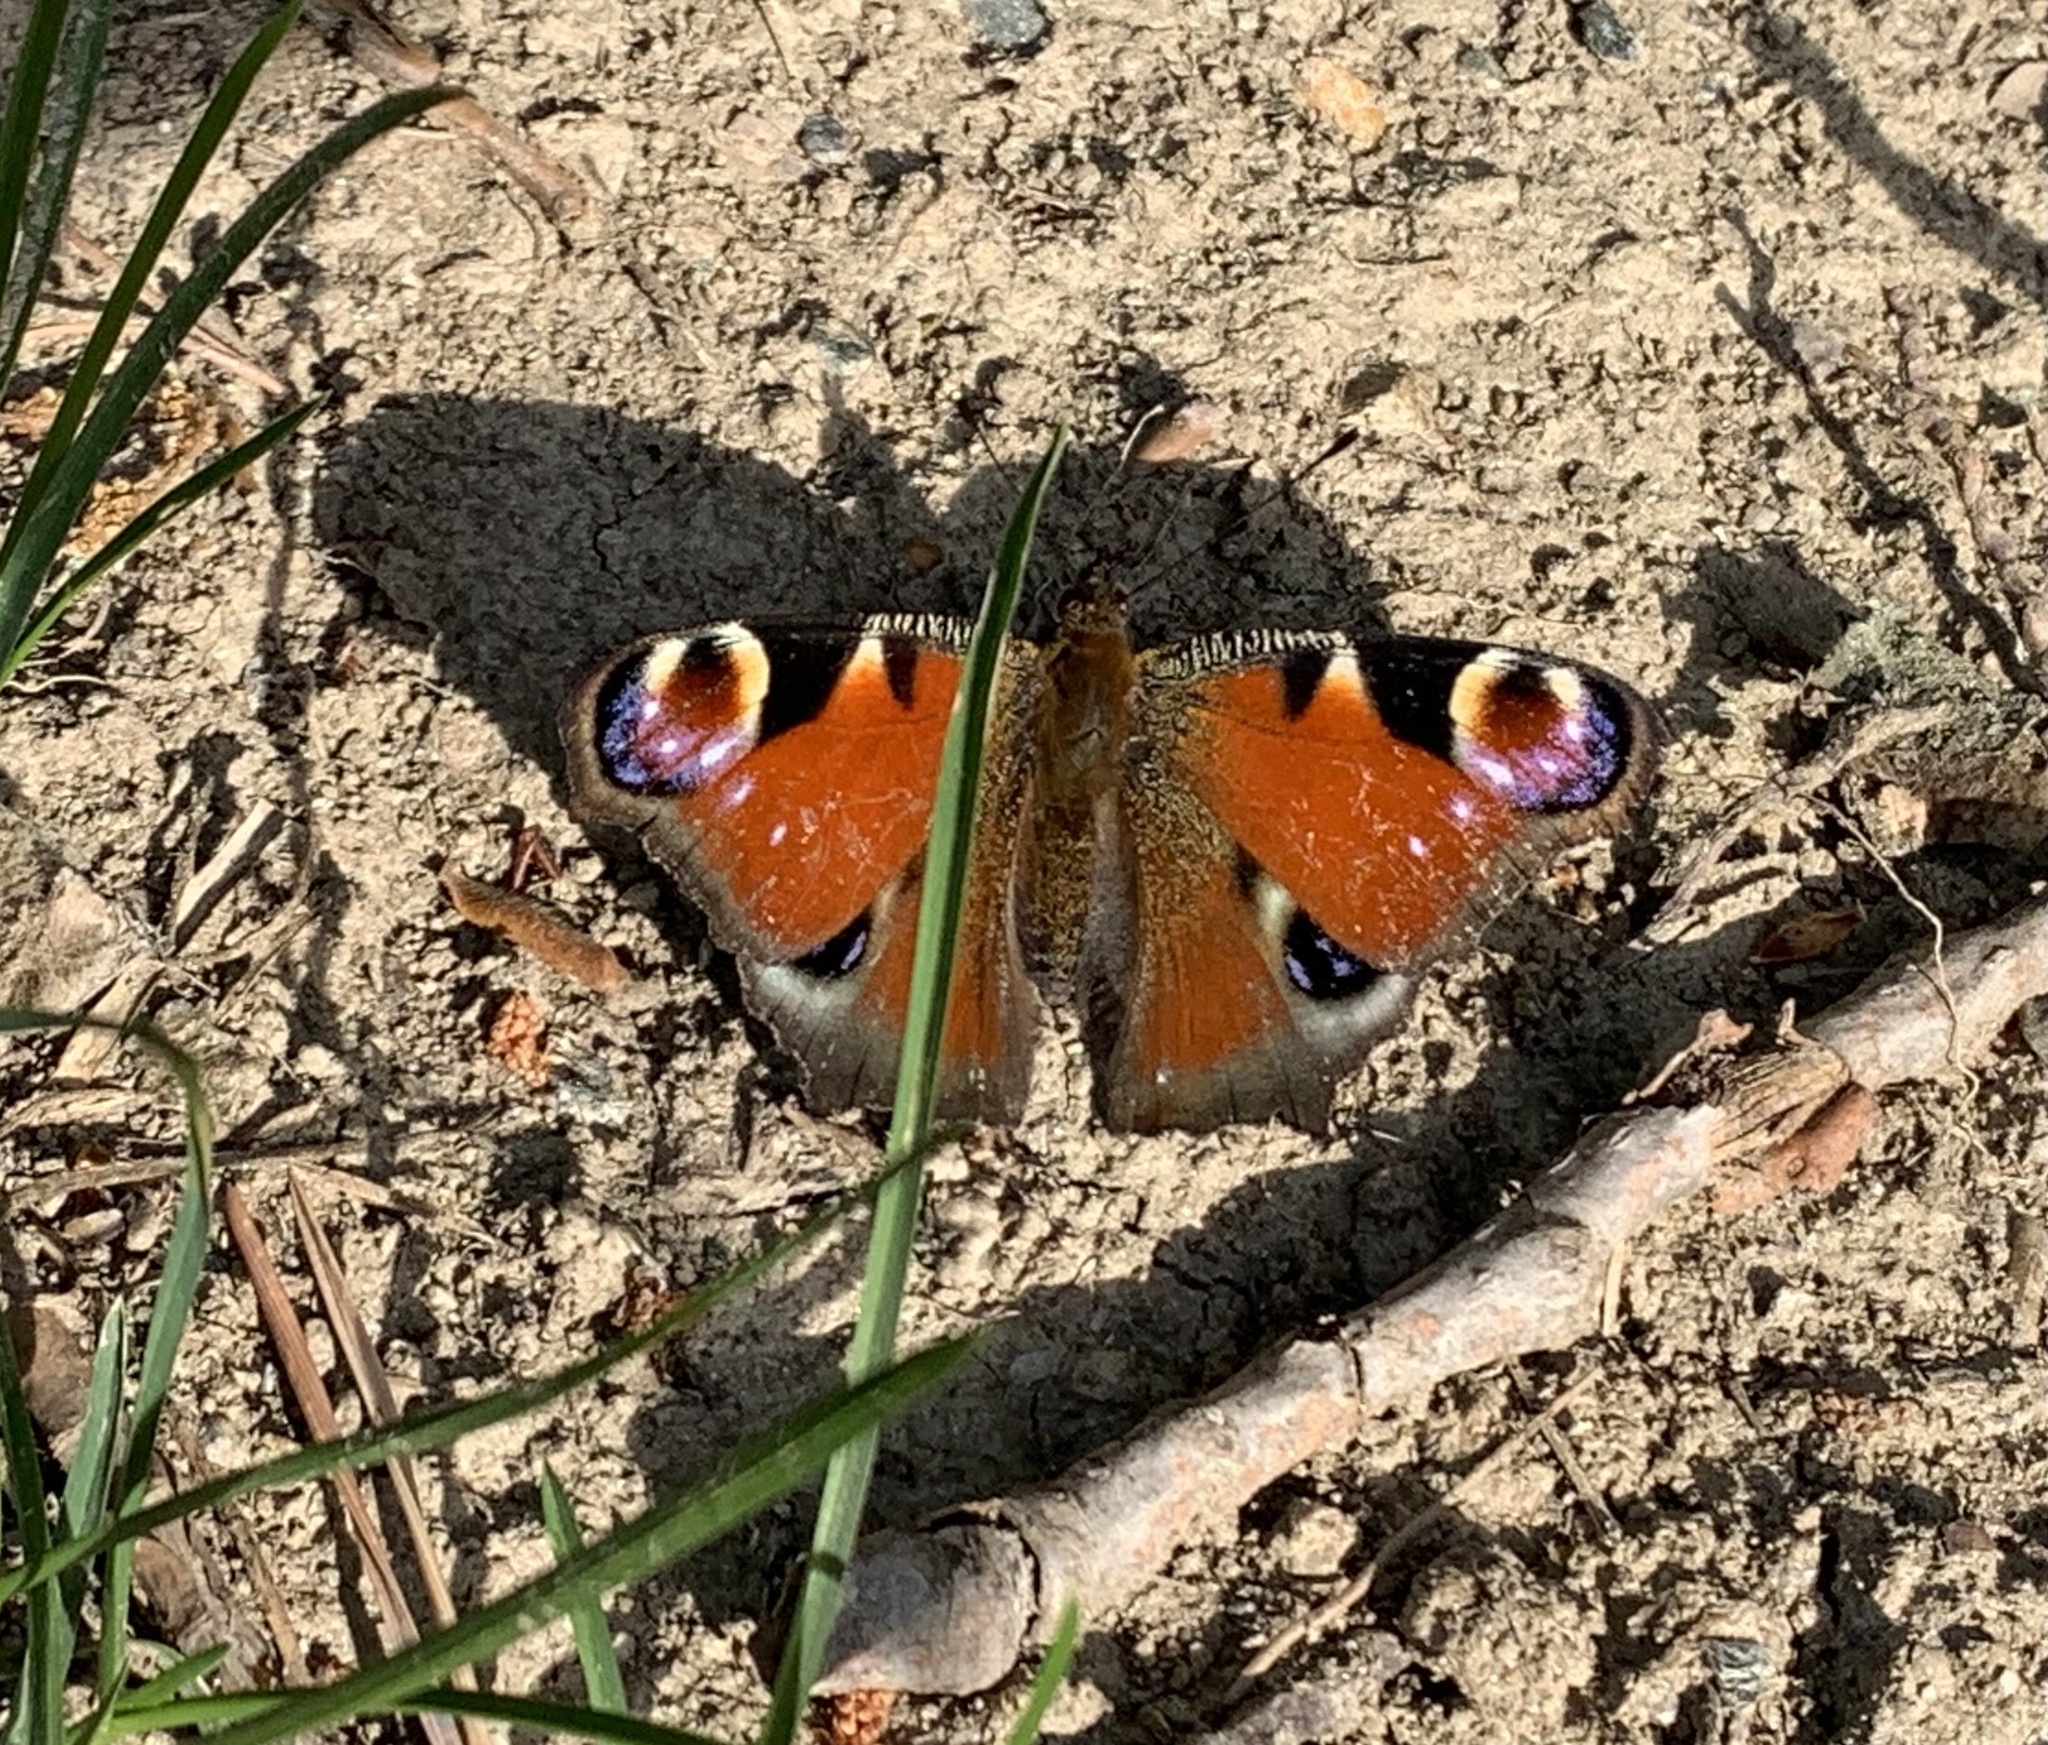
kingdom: Animalia
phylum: Arthropoda
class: Insecta
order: Lepidoptera
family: Nymphalidae
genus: Aglais
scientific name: Aglais io
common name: Peacock
